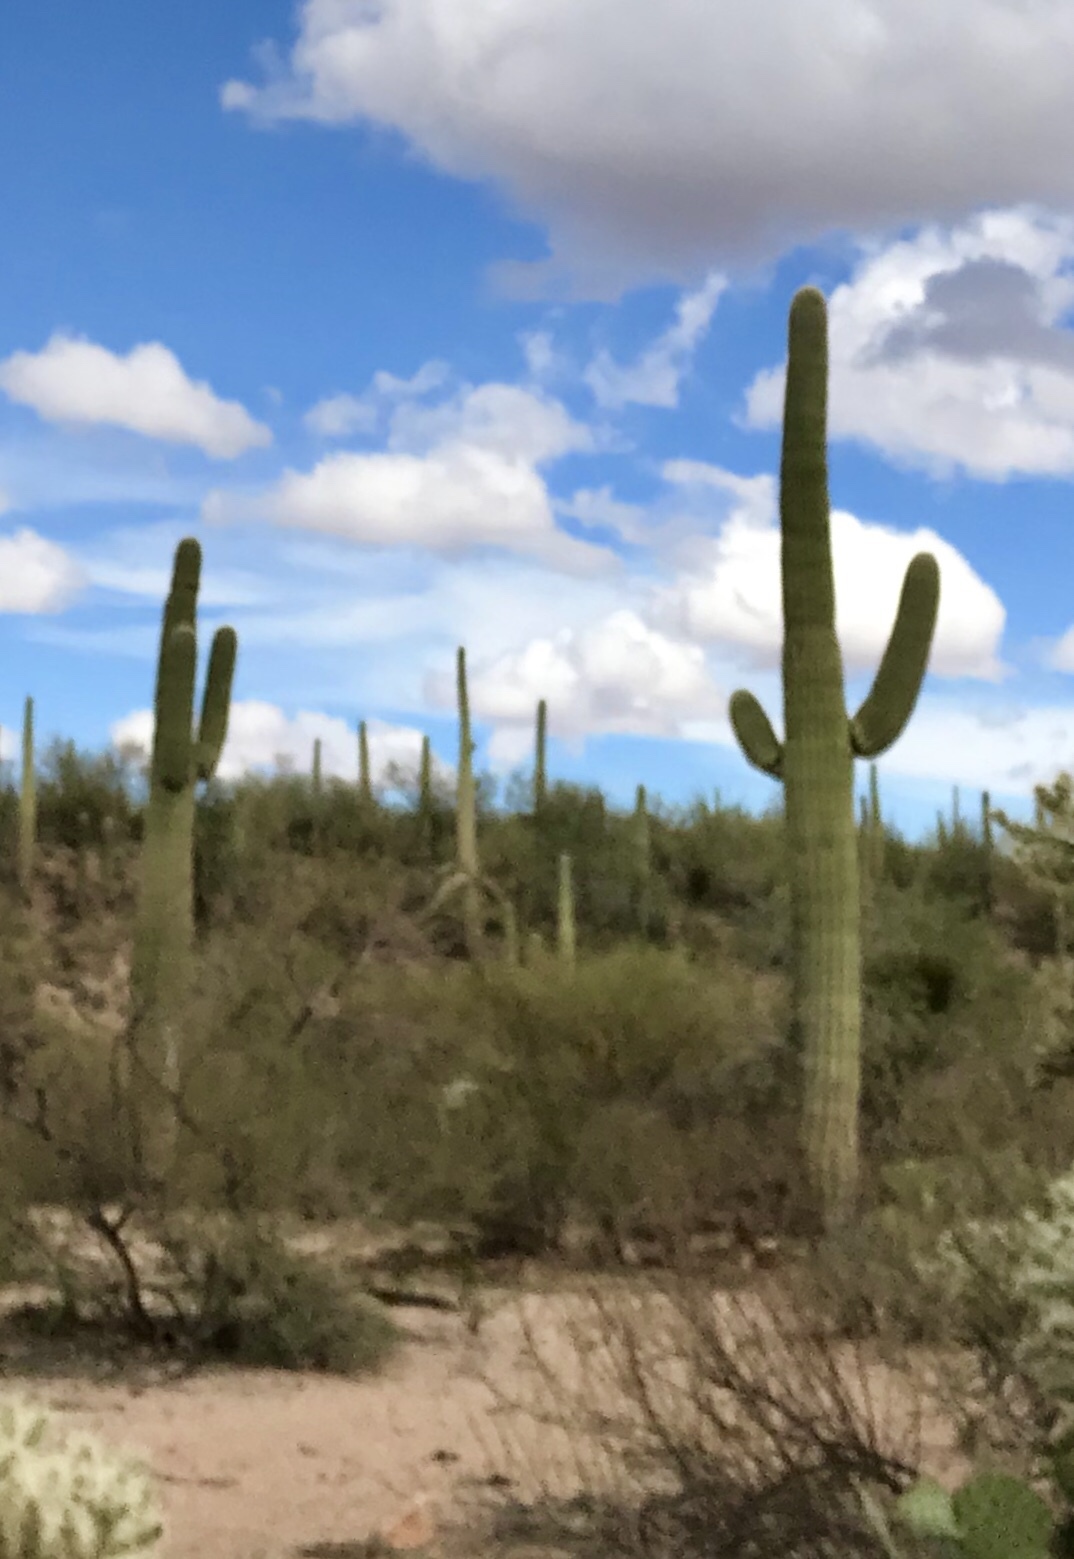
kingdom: Plantae
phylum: Tracheophyta
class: Magnoliopsida
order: Caryophyllales
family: Cactaceae
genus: Carnegiea
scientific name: Carnegiea gigantea
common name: Saguaro
